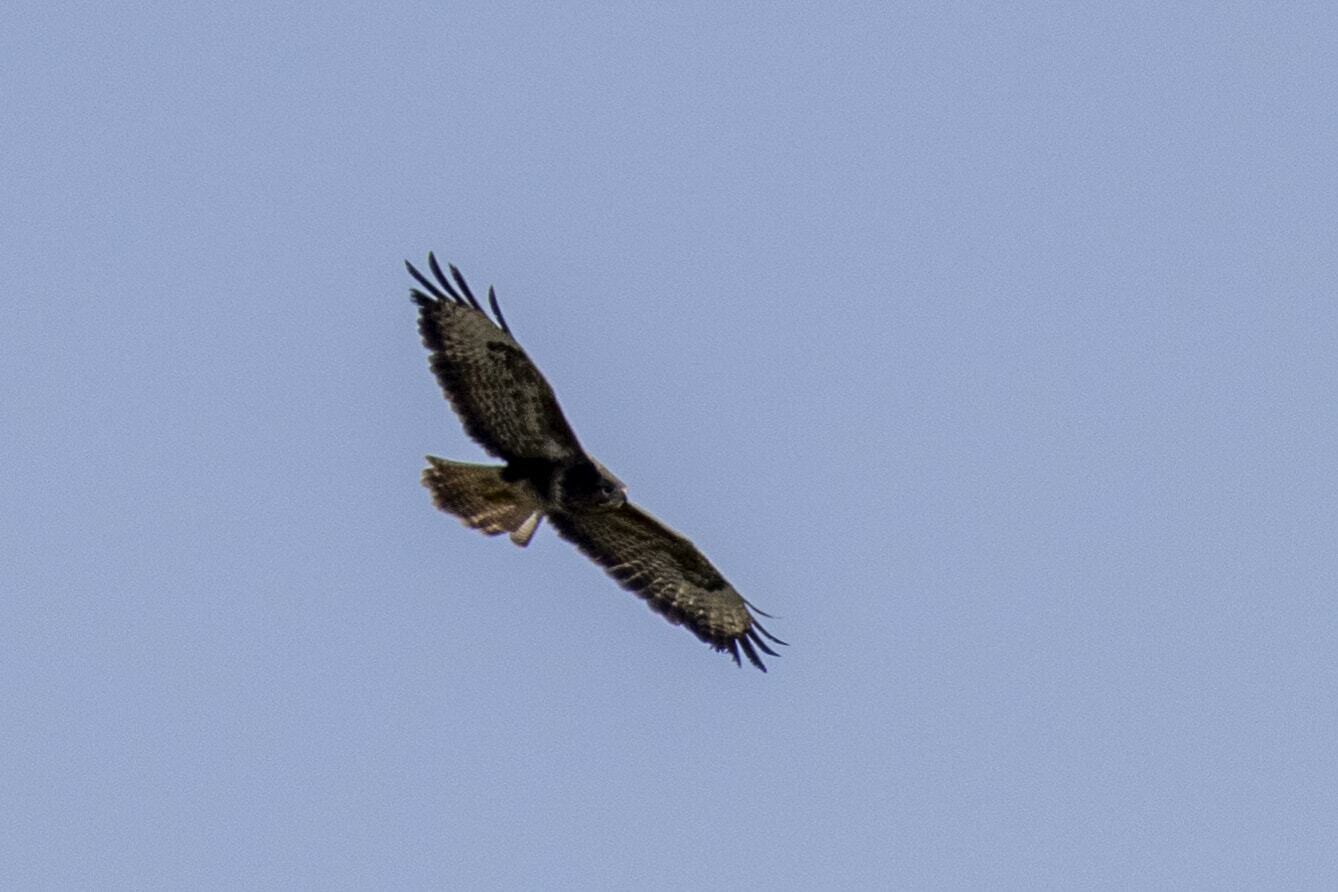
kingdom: Animalia
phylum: Chordata
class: Aves
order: Accipitriformes
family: Accipitridae
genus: Buteo
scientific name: Buteo buteo
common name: Common buzzard
